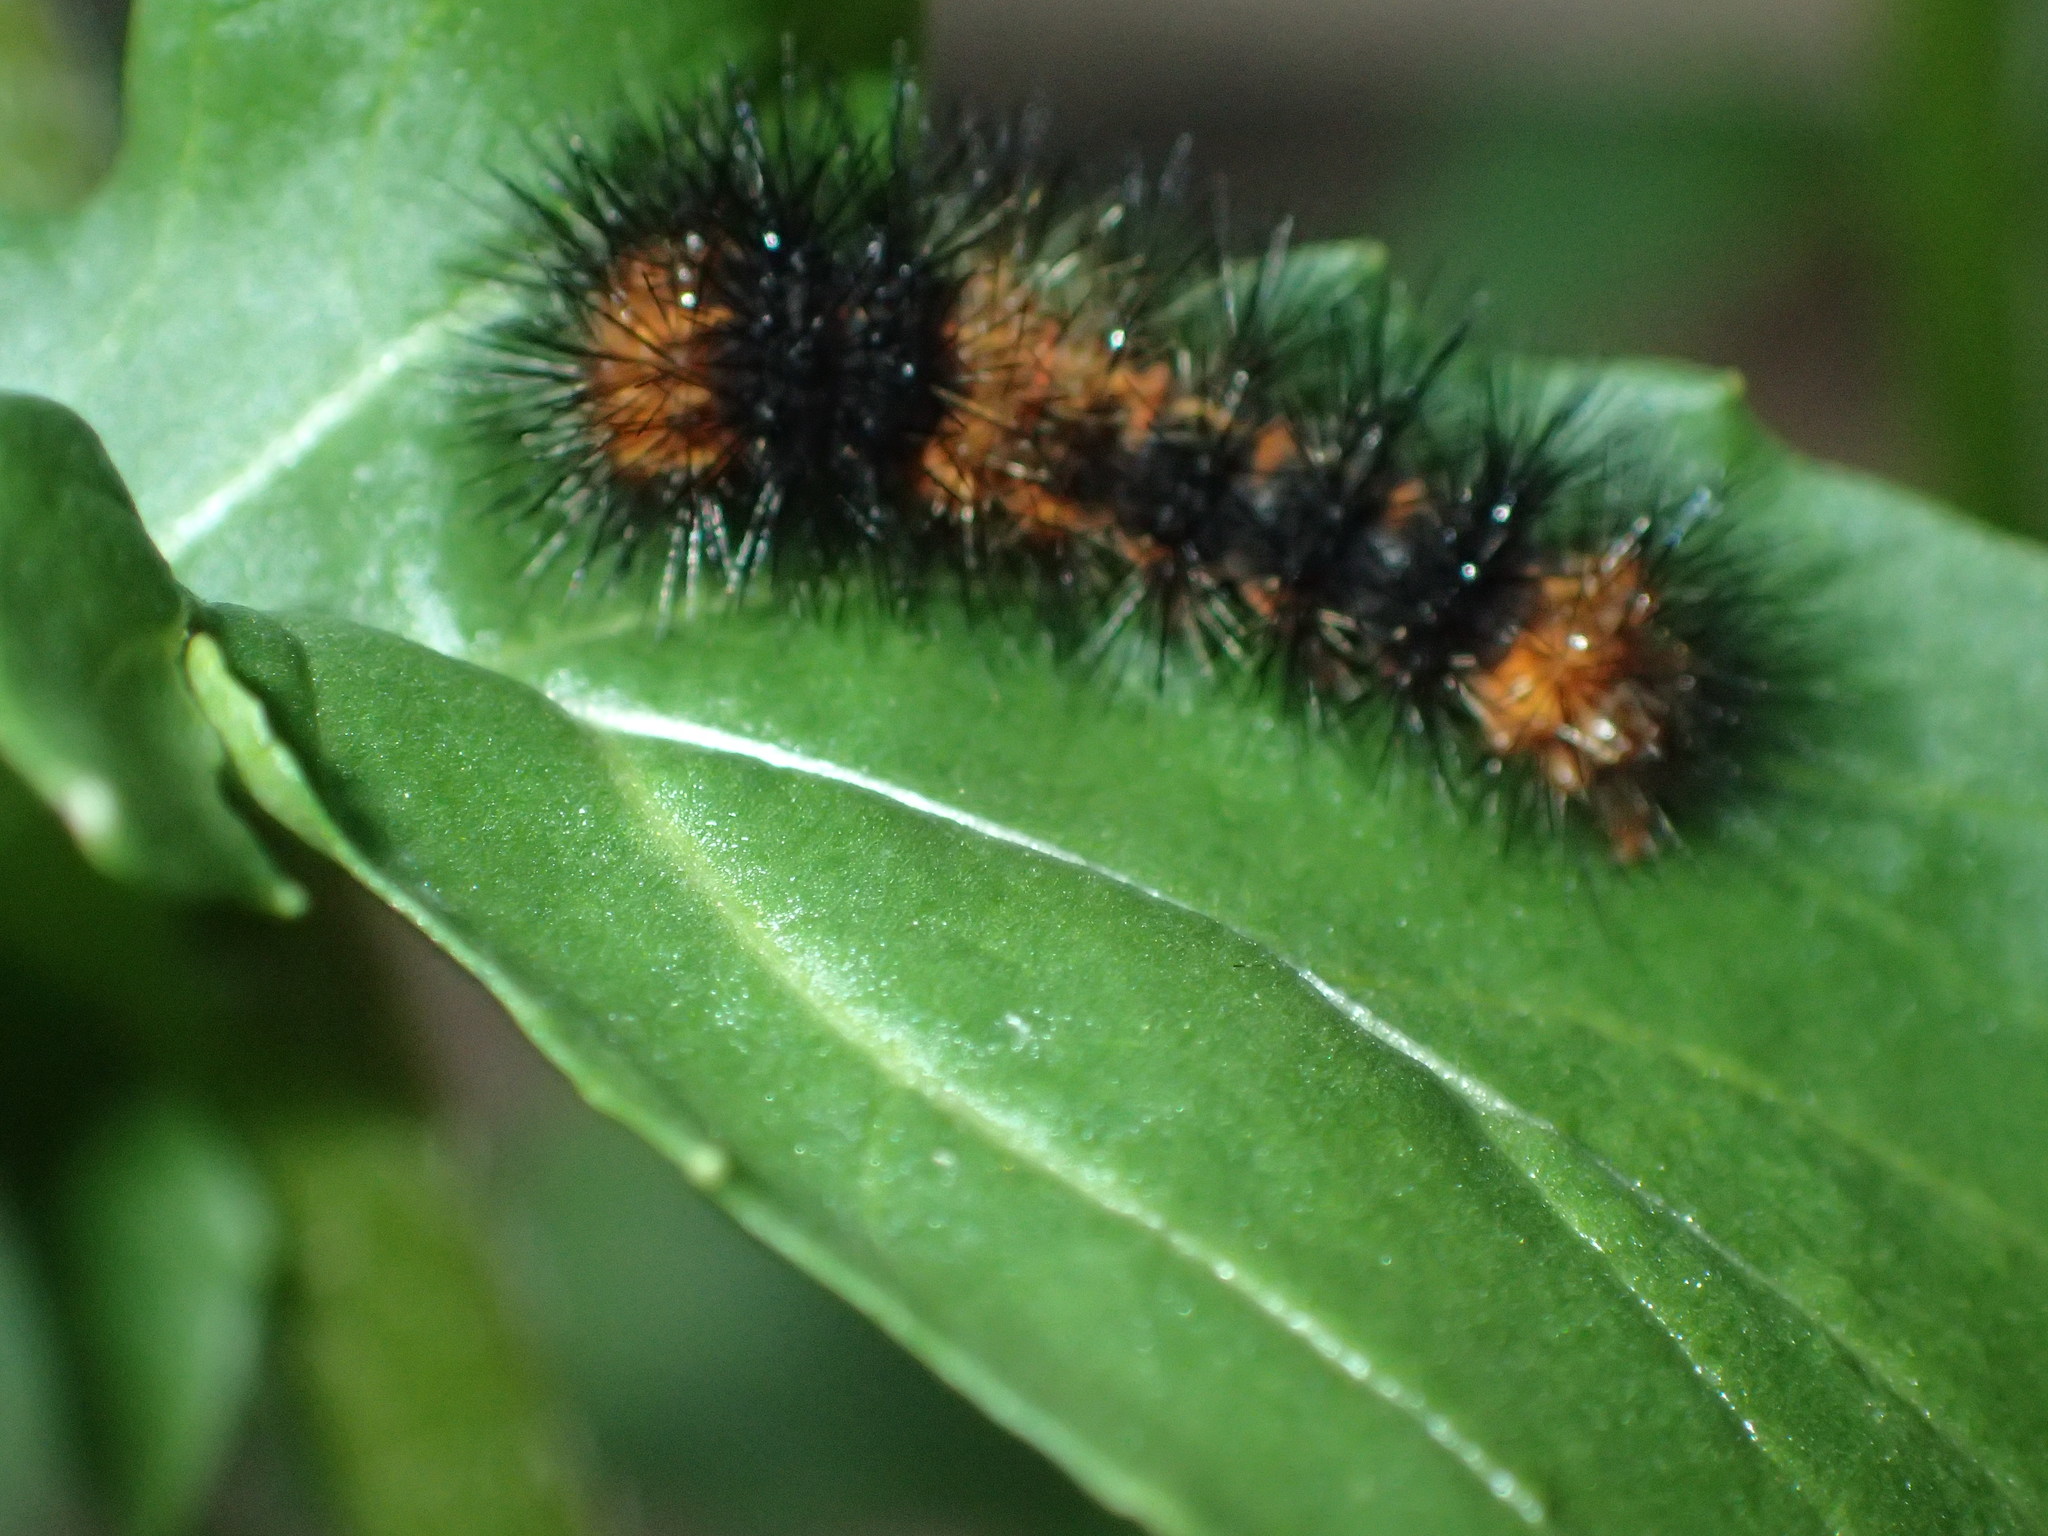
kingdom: Animalia
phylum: Arthropoda
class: Insecta
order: Lepidoptera
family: Erebidae
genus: Hypercompe
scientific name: Hypercompe scribonia
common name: Giant leopard moth
